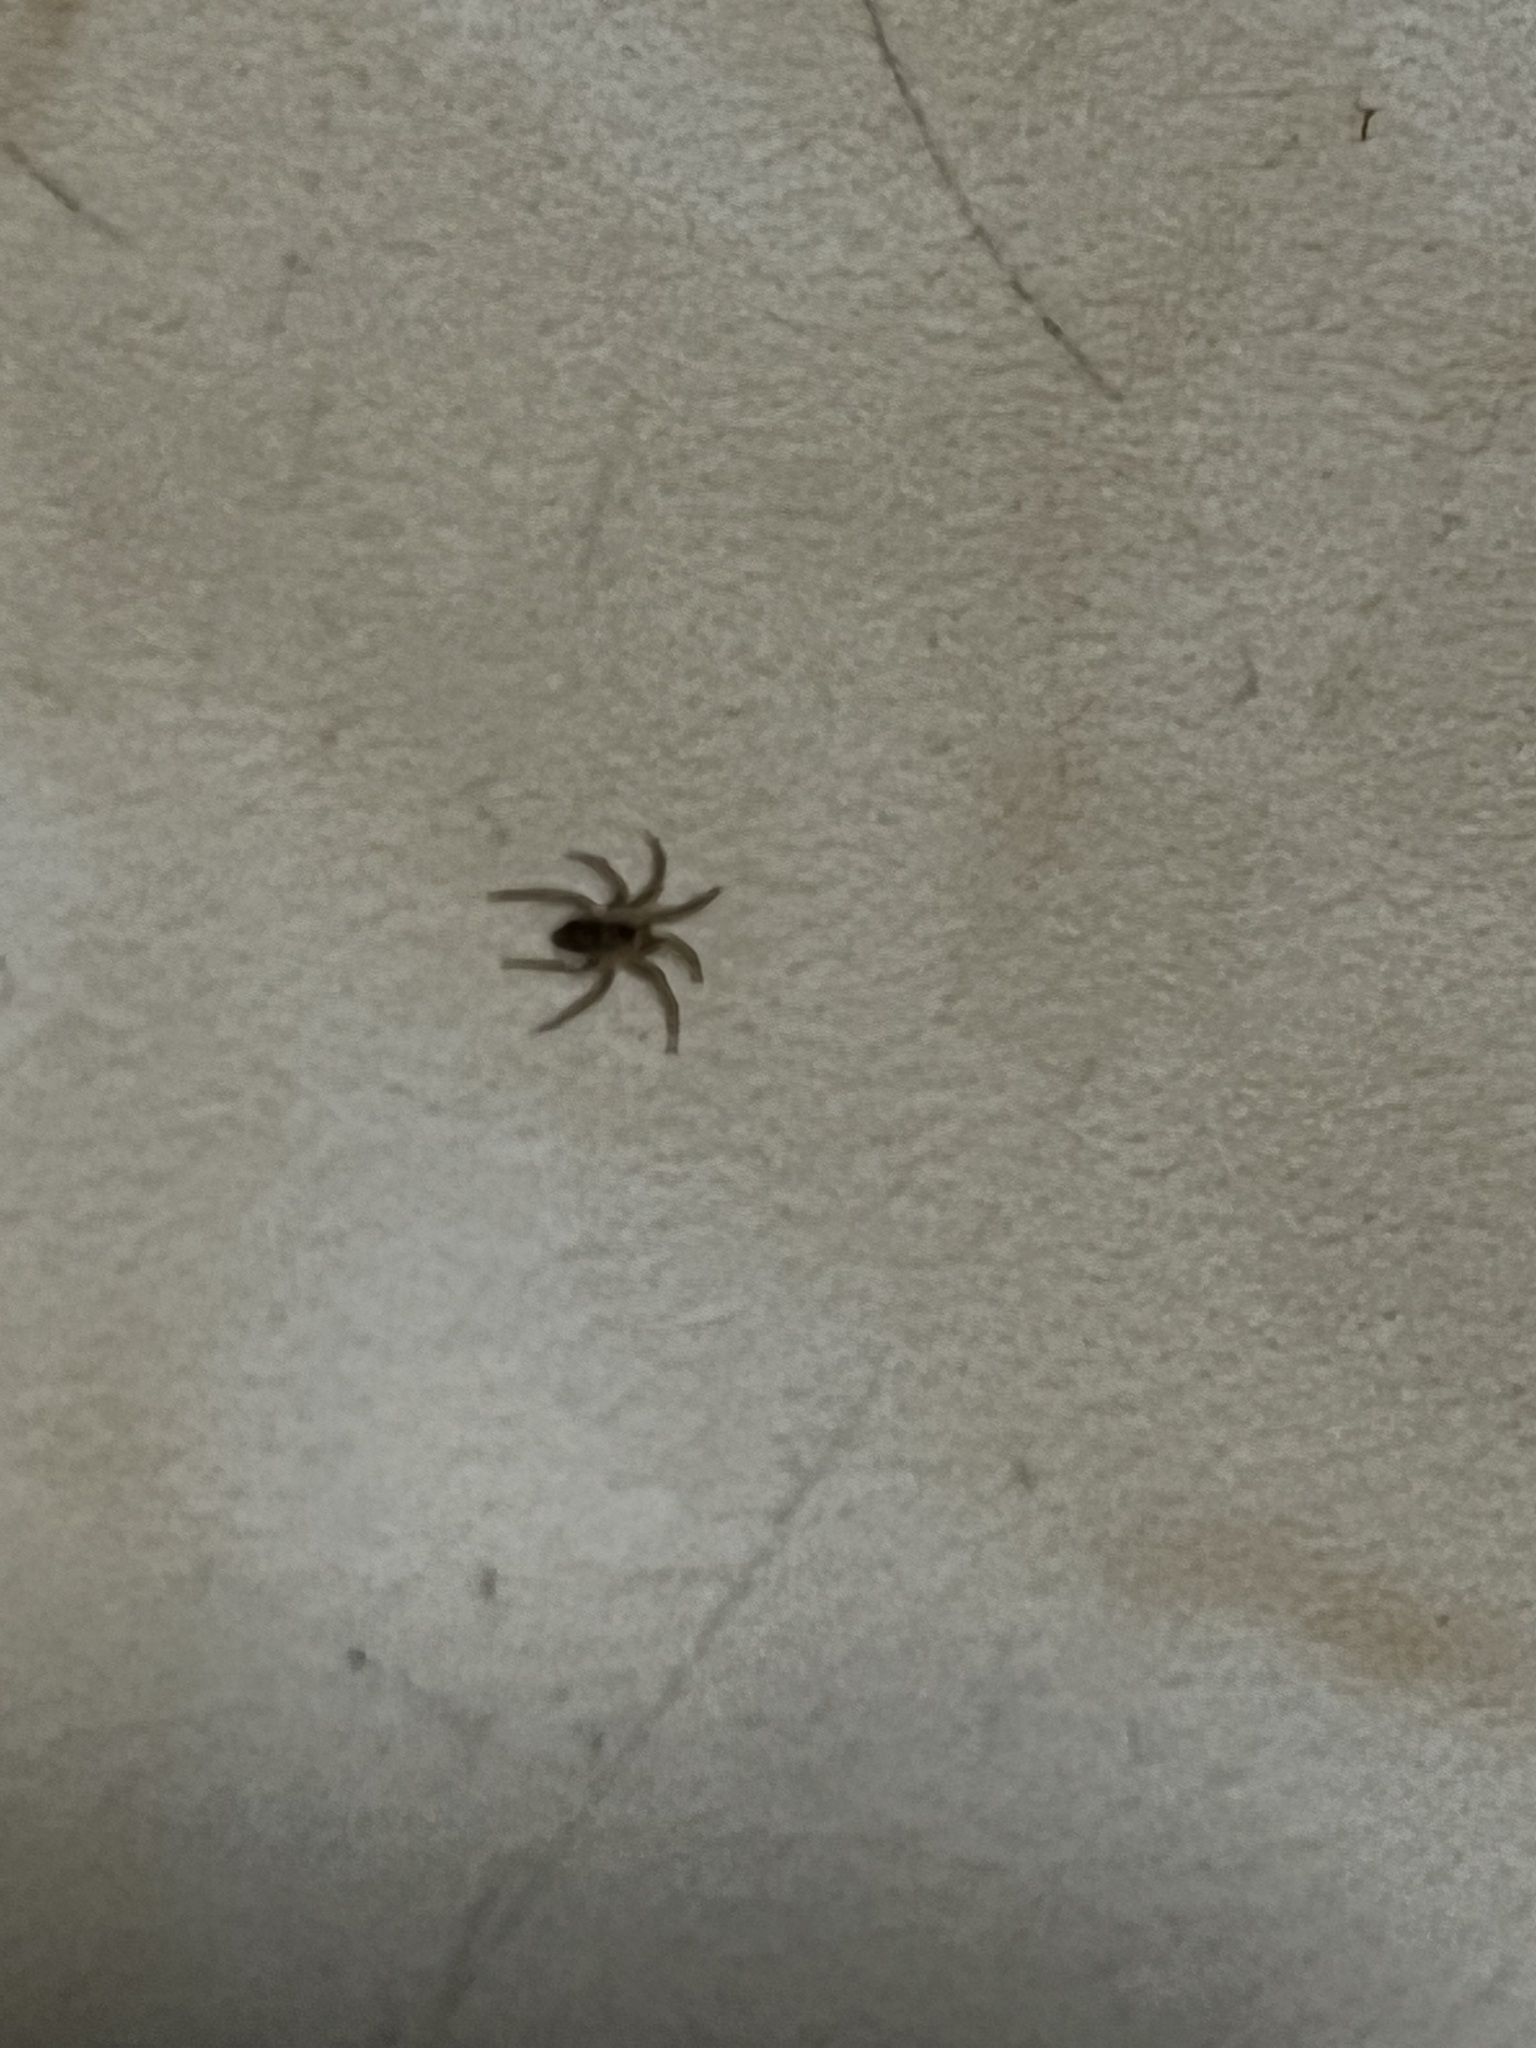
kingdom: Animalia
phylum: Arthropoda
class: Arachnida
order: Araneae
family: Oecobiidae
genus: Oecobius
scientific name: Oecobius
